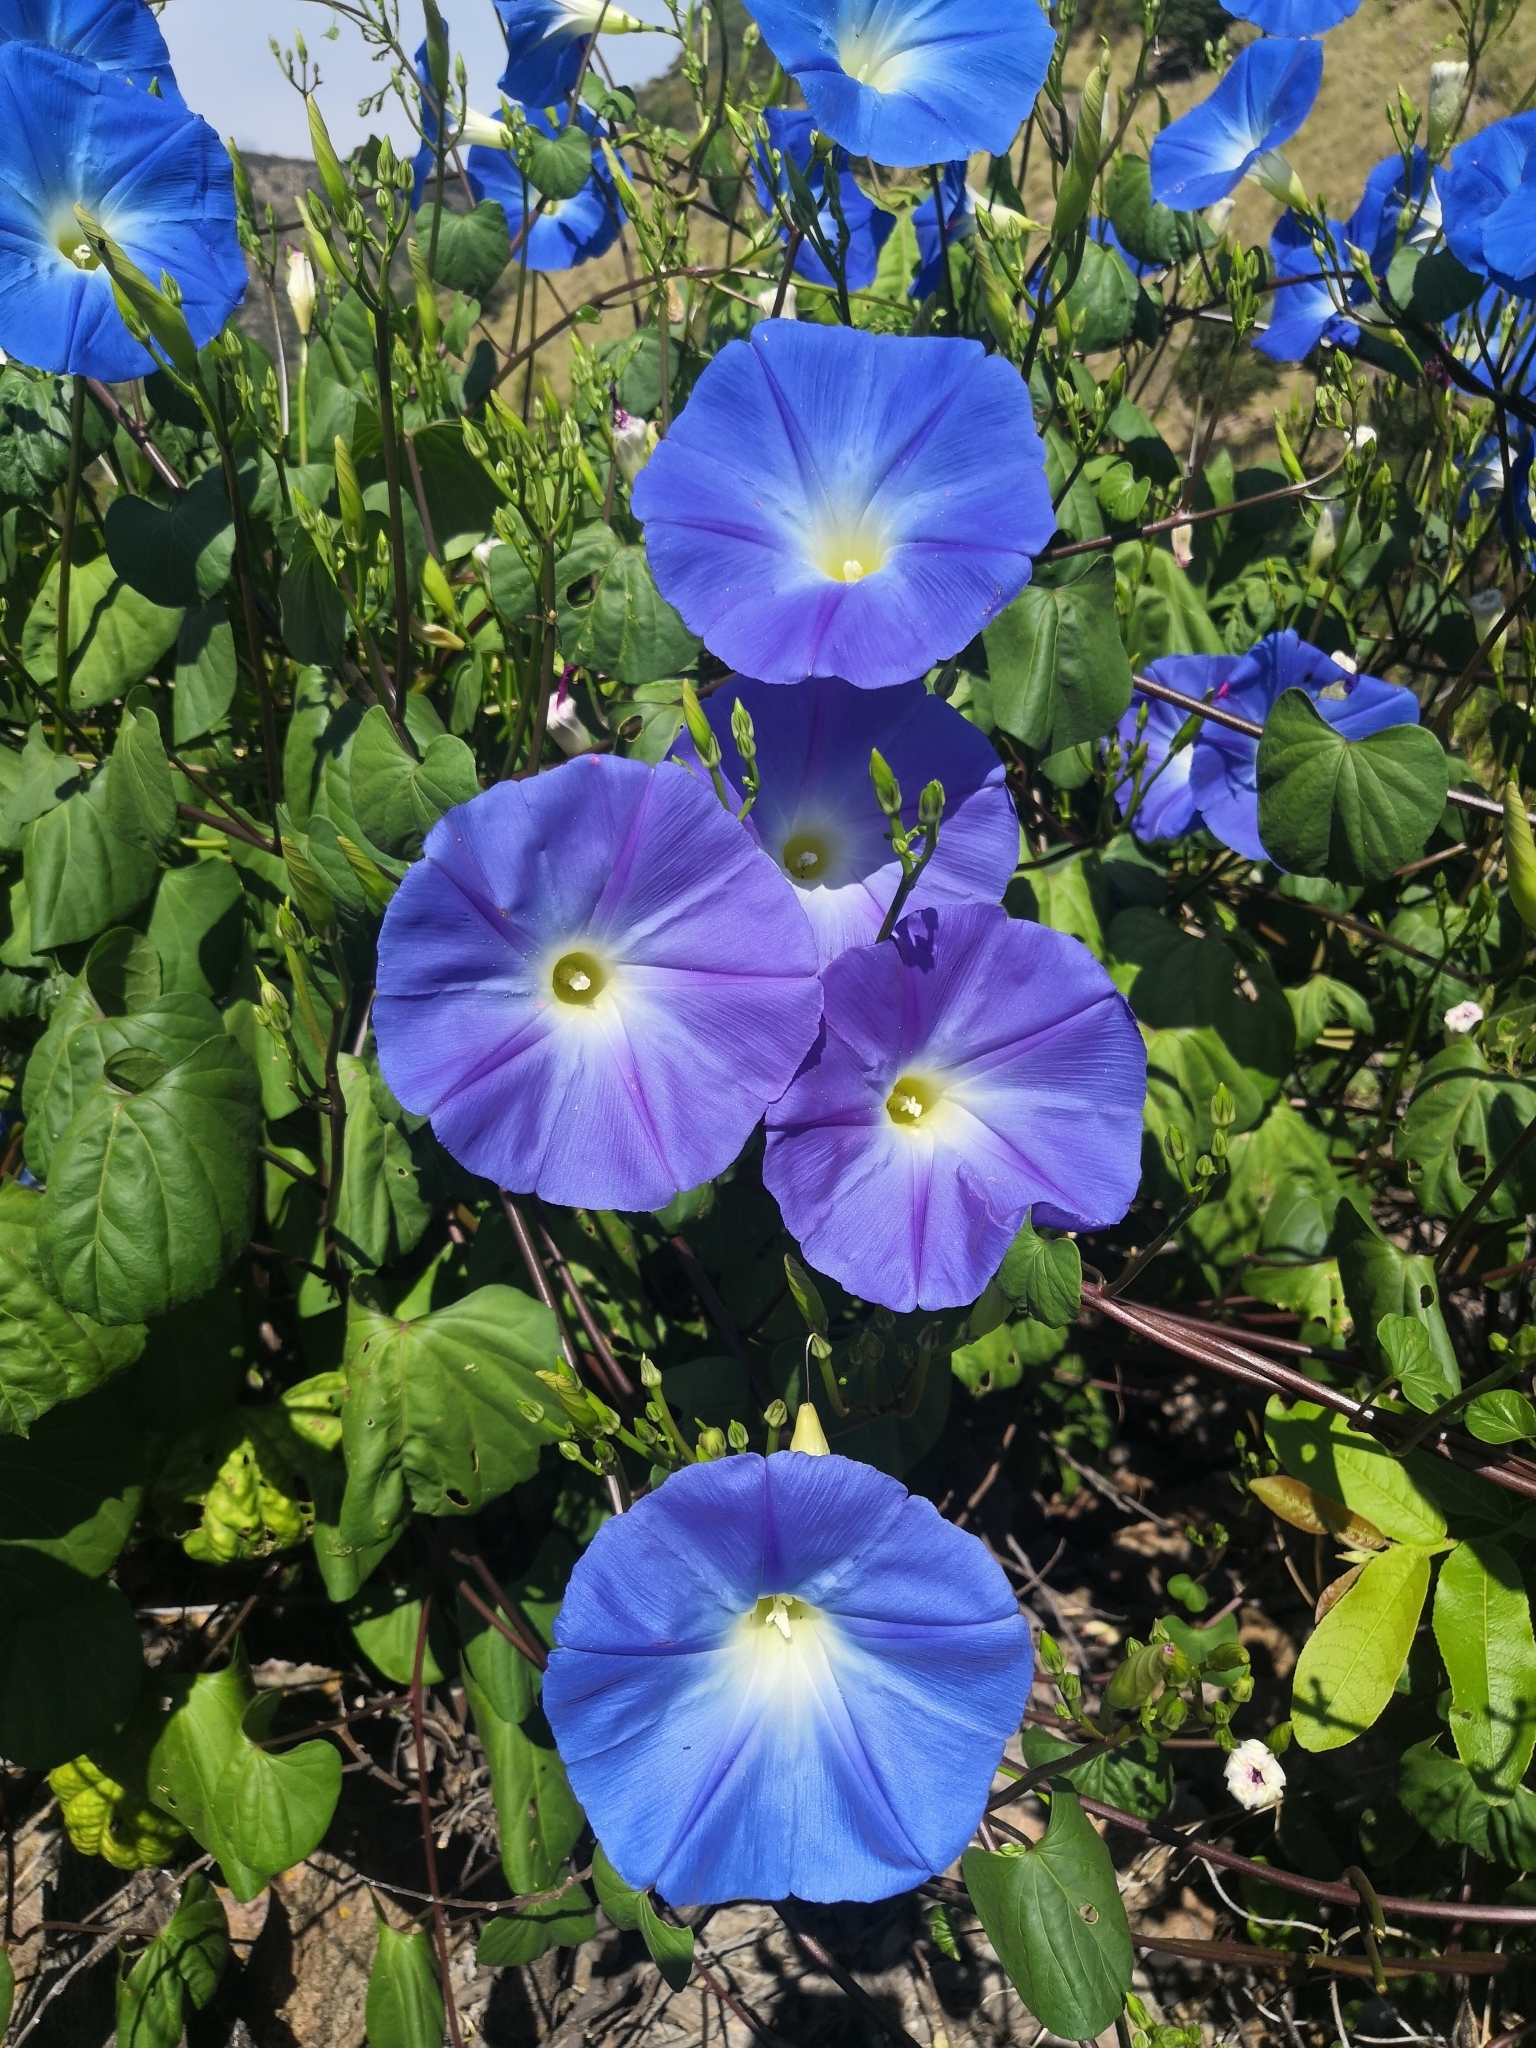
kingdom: Plantae
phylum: Tracheophyta
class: Magnoliopsida
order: Solanales
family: Convolvulaceae
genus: Ipomoea
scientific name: Ipomoea tricolor
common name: Morning-glory
